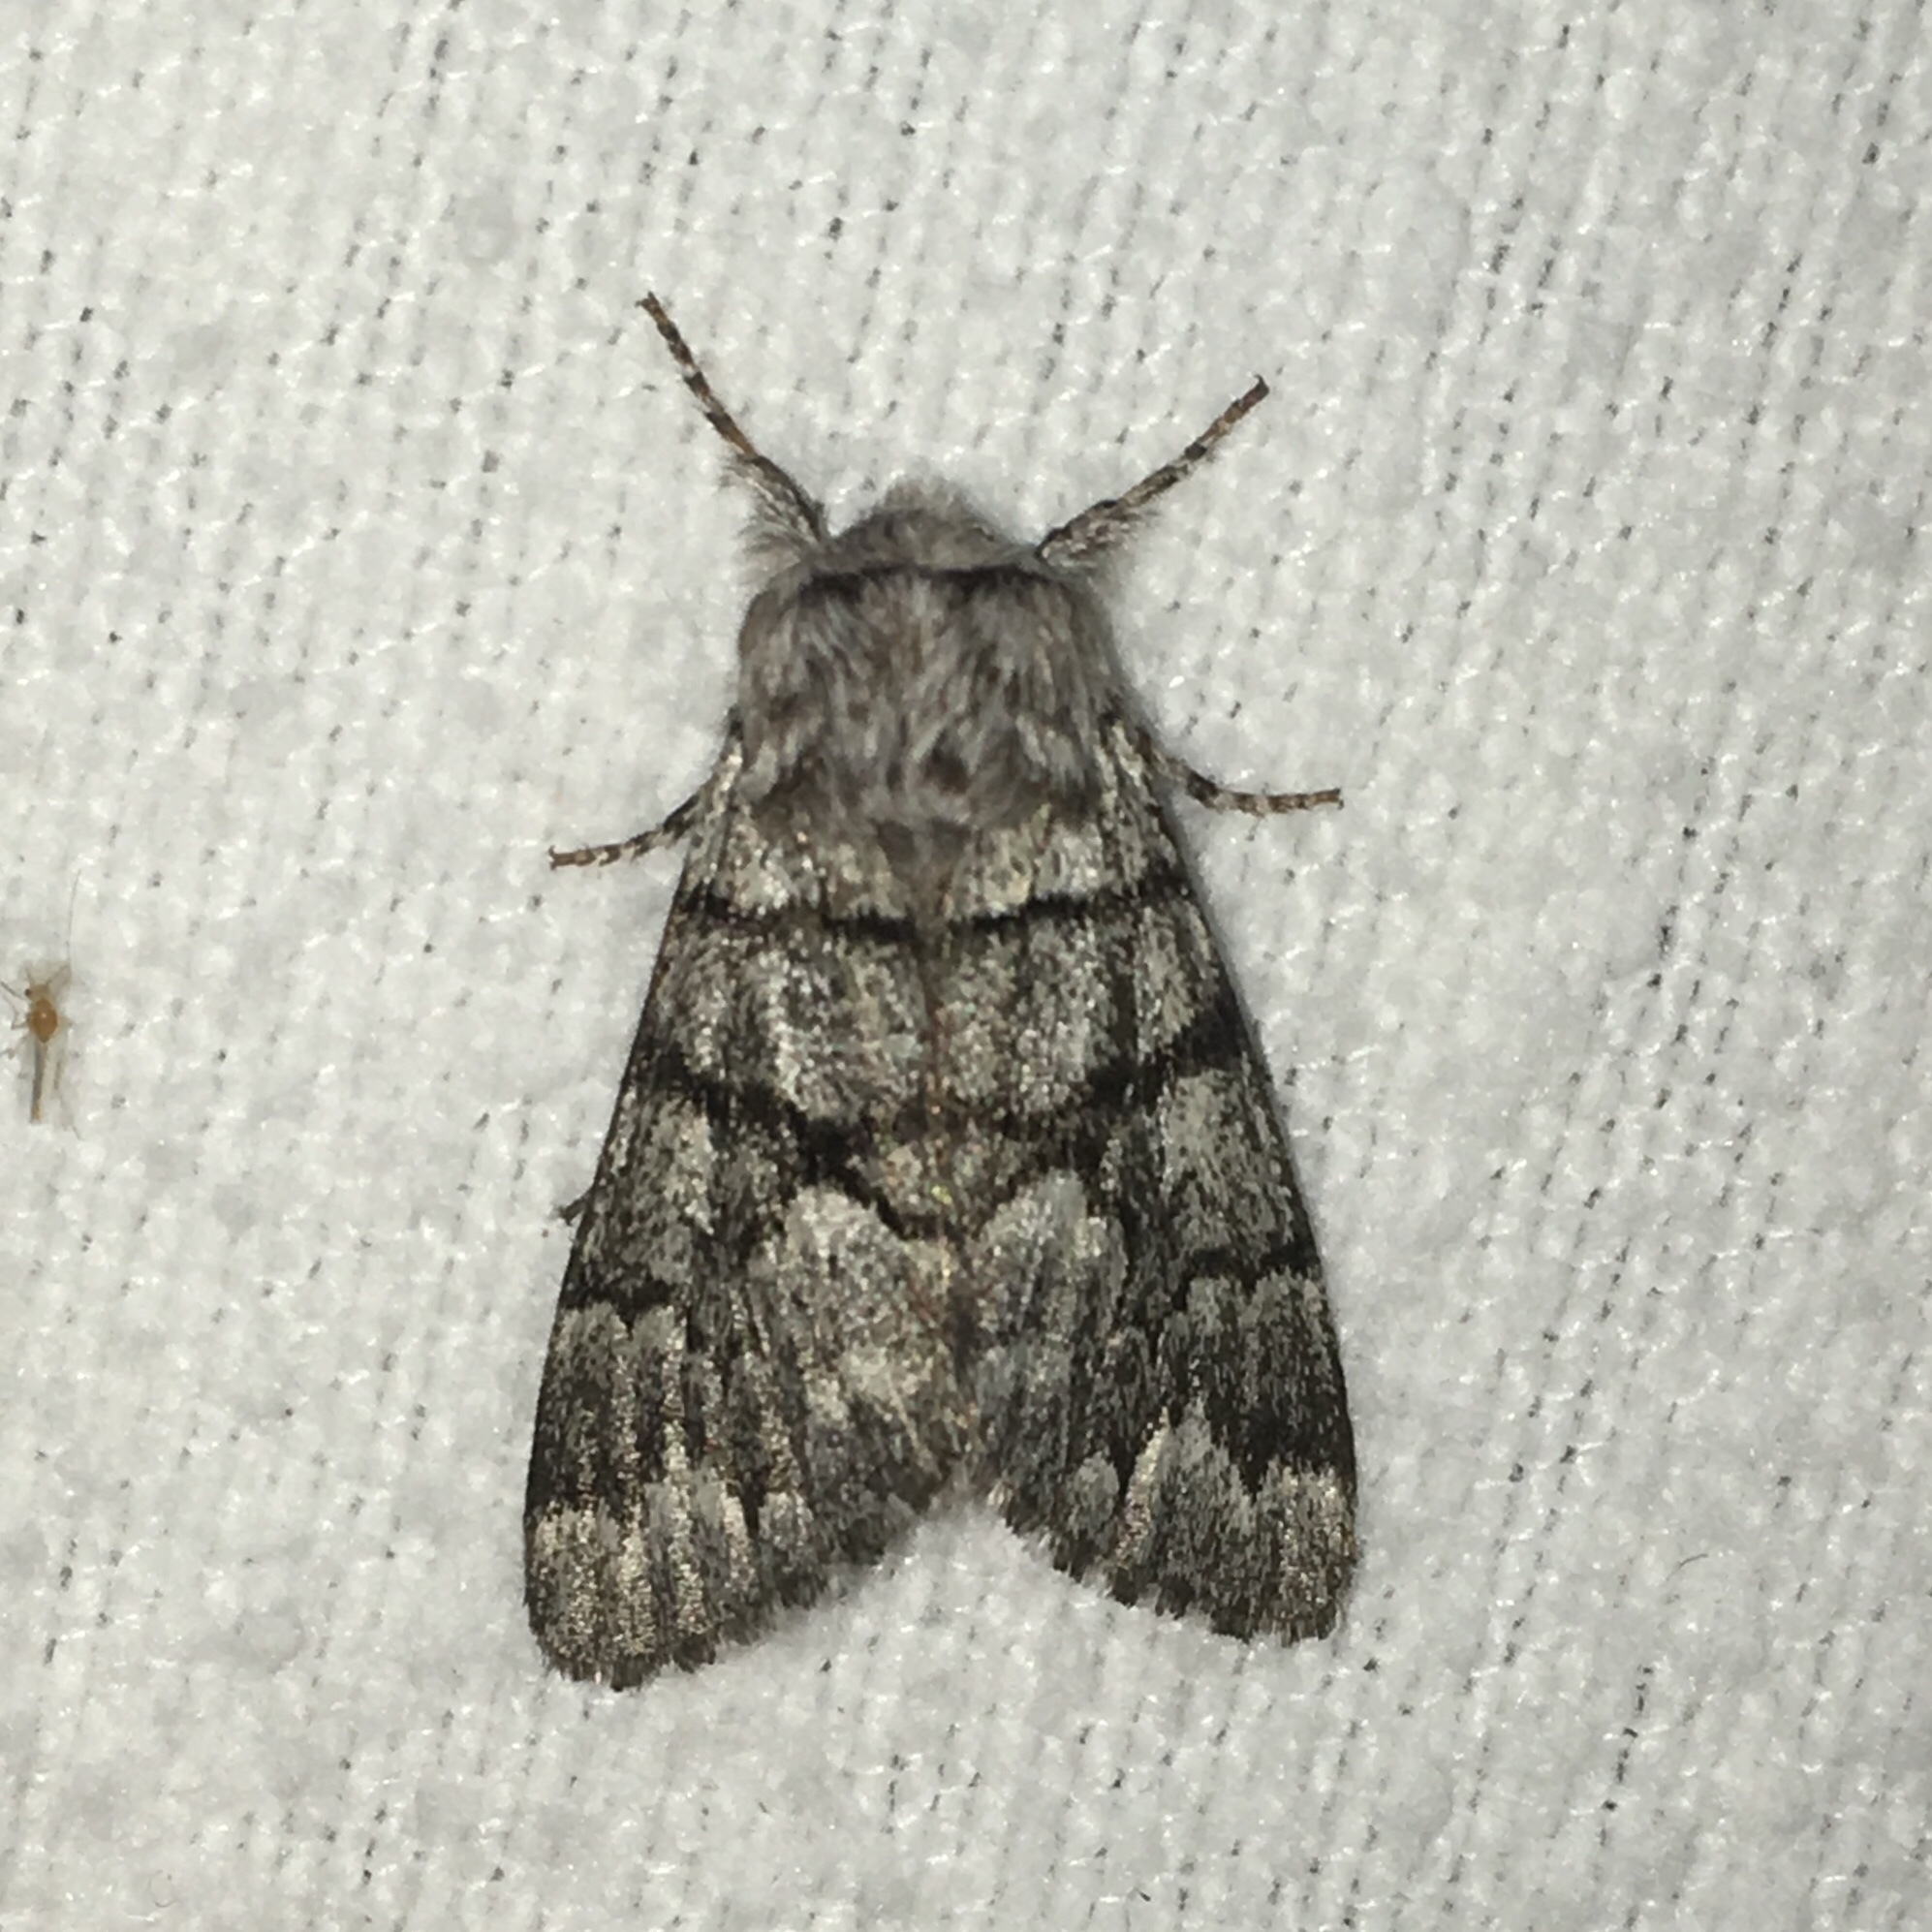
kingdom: Animalia
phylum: Arthropoda
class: Insecta
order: Lepidoptera
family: Noctuidae
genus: Panthea
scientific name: Panthea furcilla
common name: Eastern panthea moth
